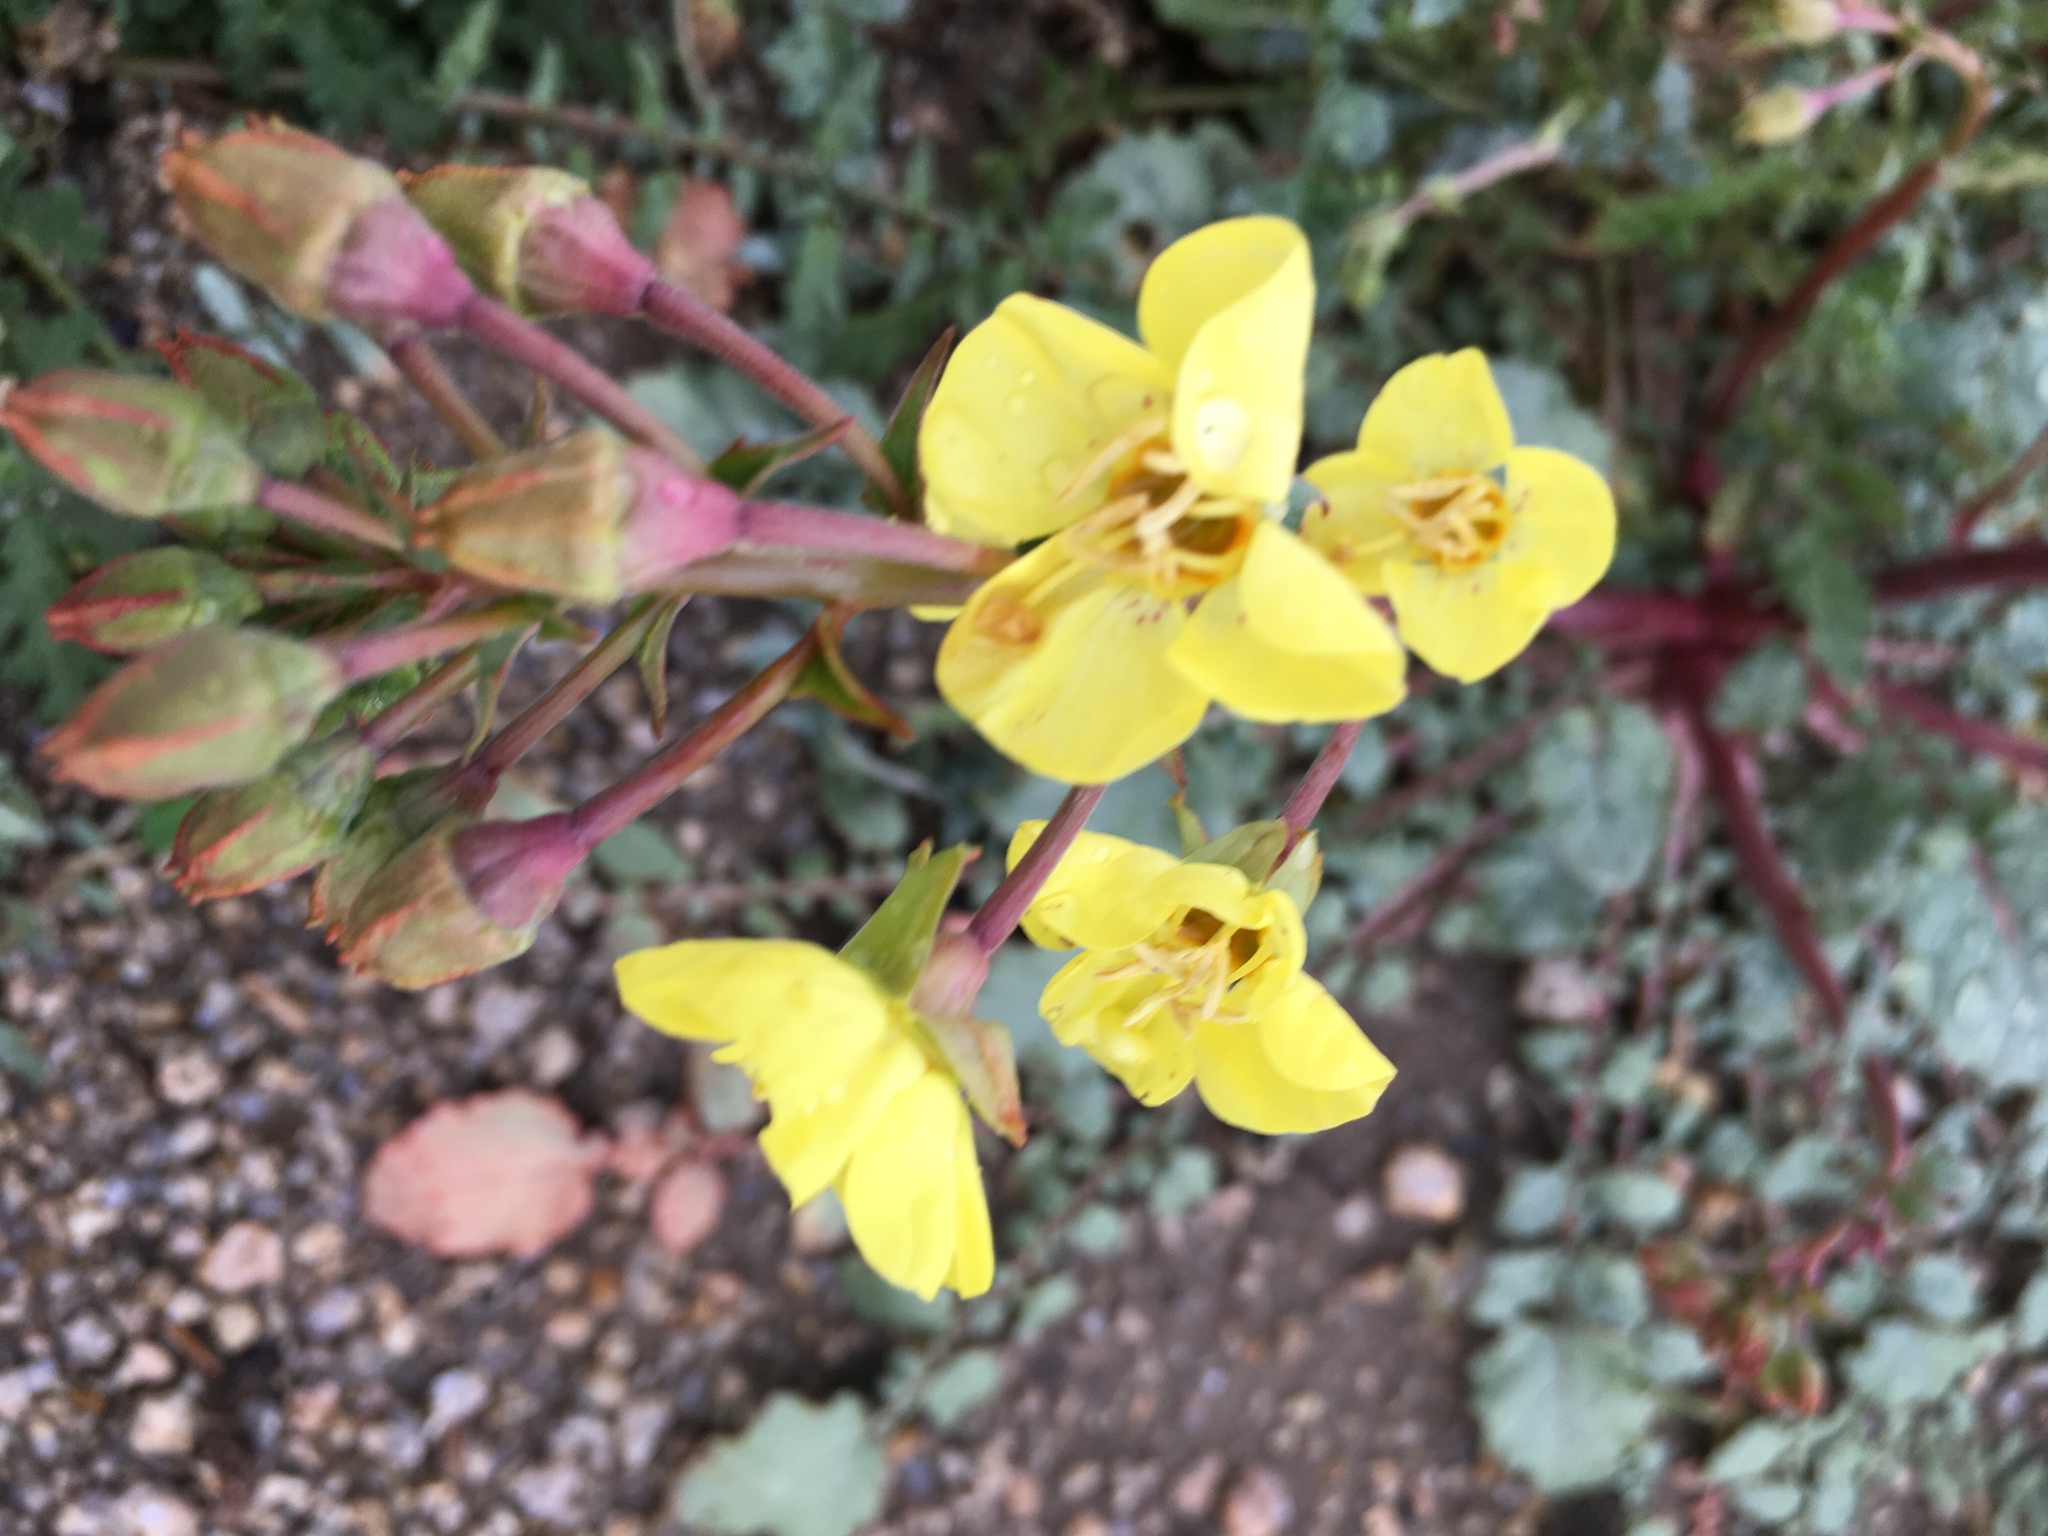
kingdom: Plantae
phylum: Tracheophyta
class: Magnoliopsida
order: Myrtales
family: Onagraceae
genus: Chylismia
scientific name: Chylismia brevipes
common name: Yellow cups
